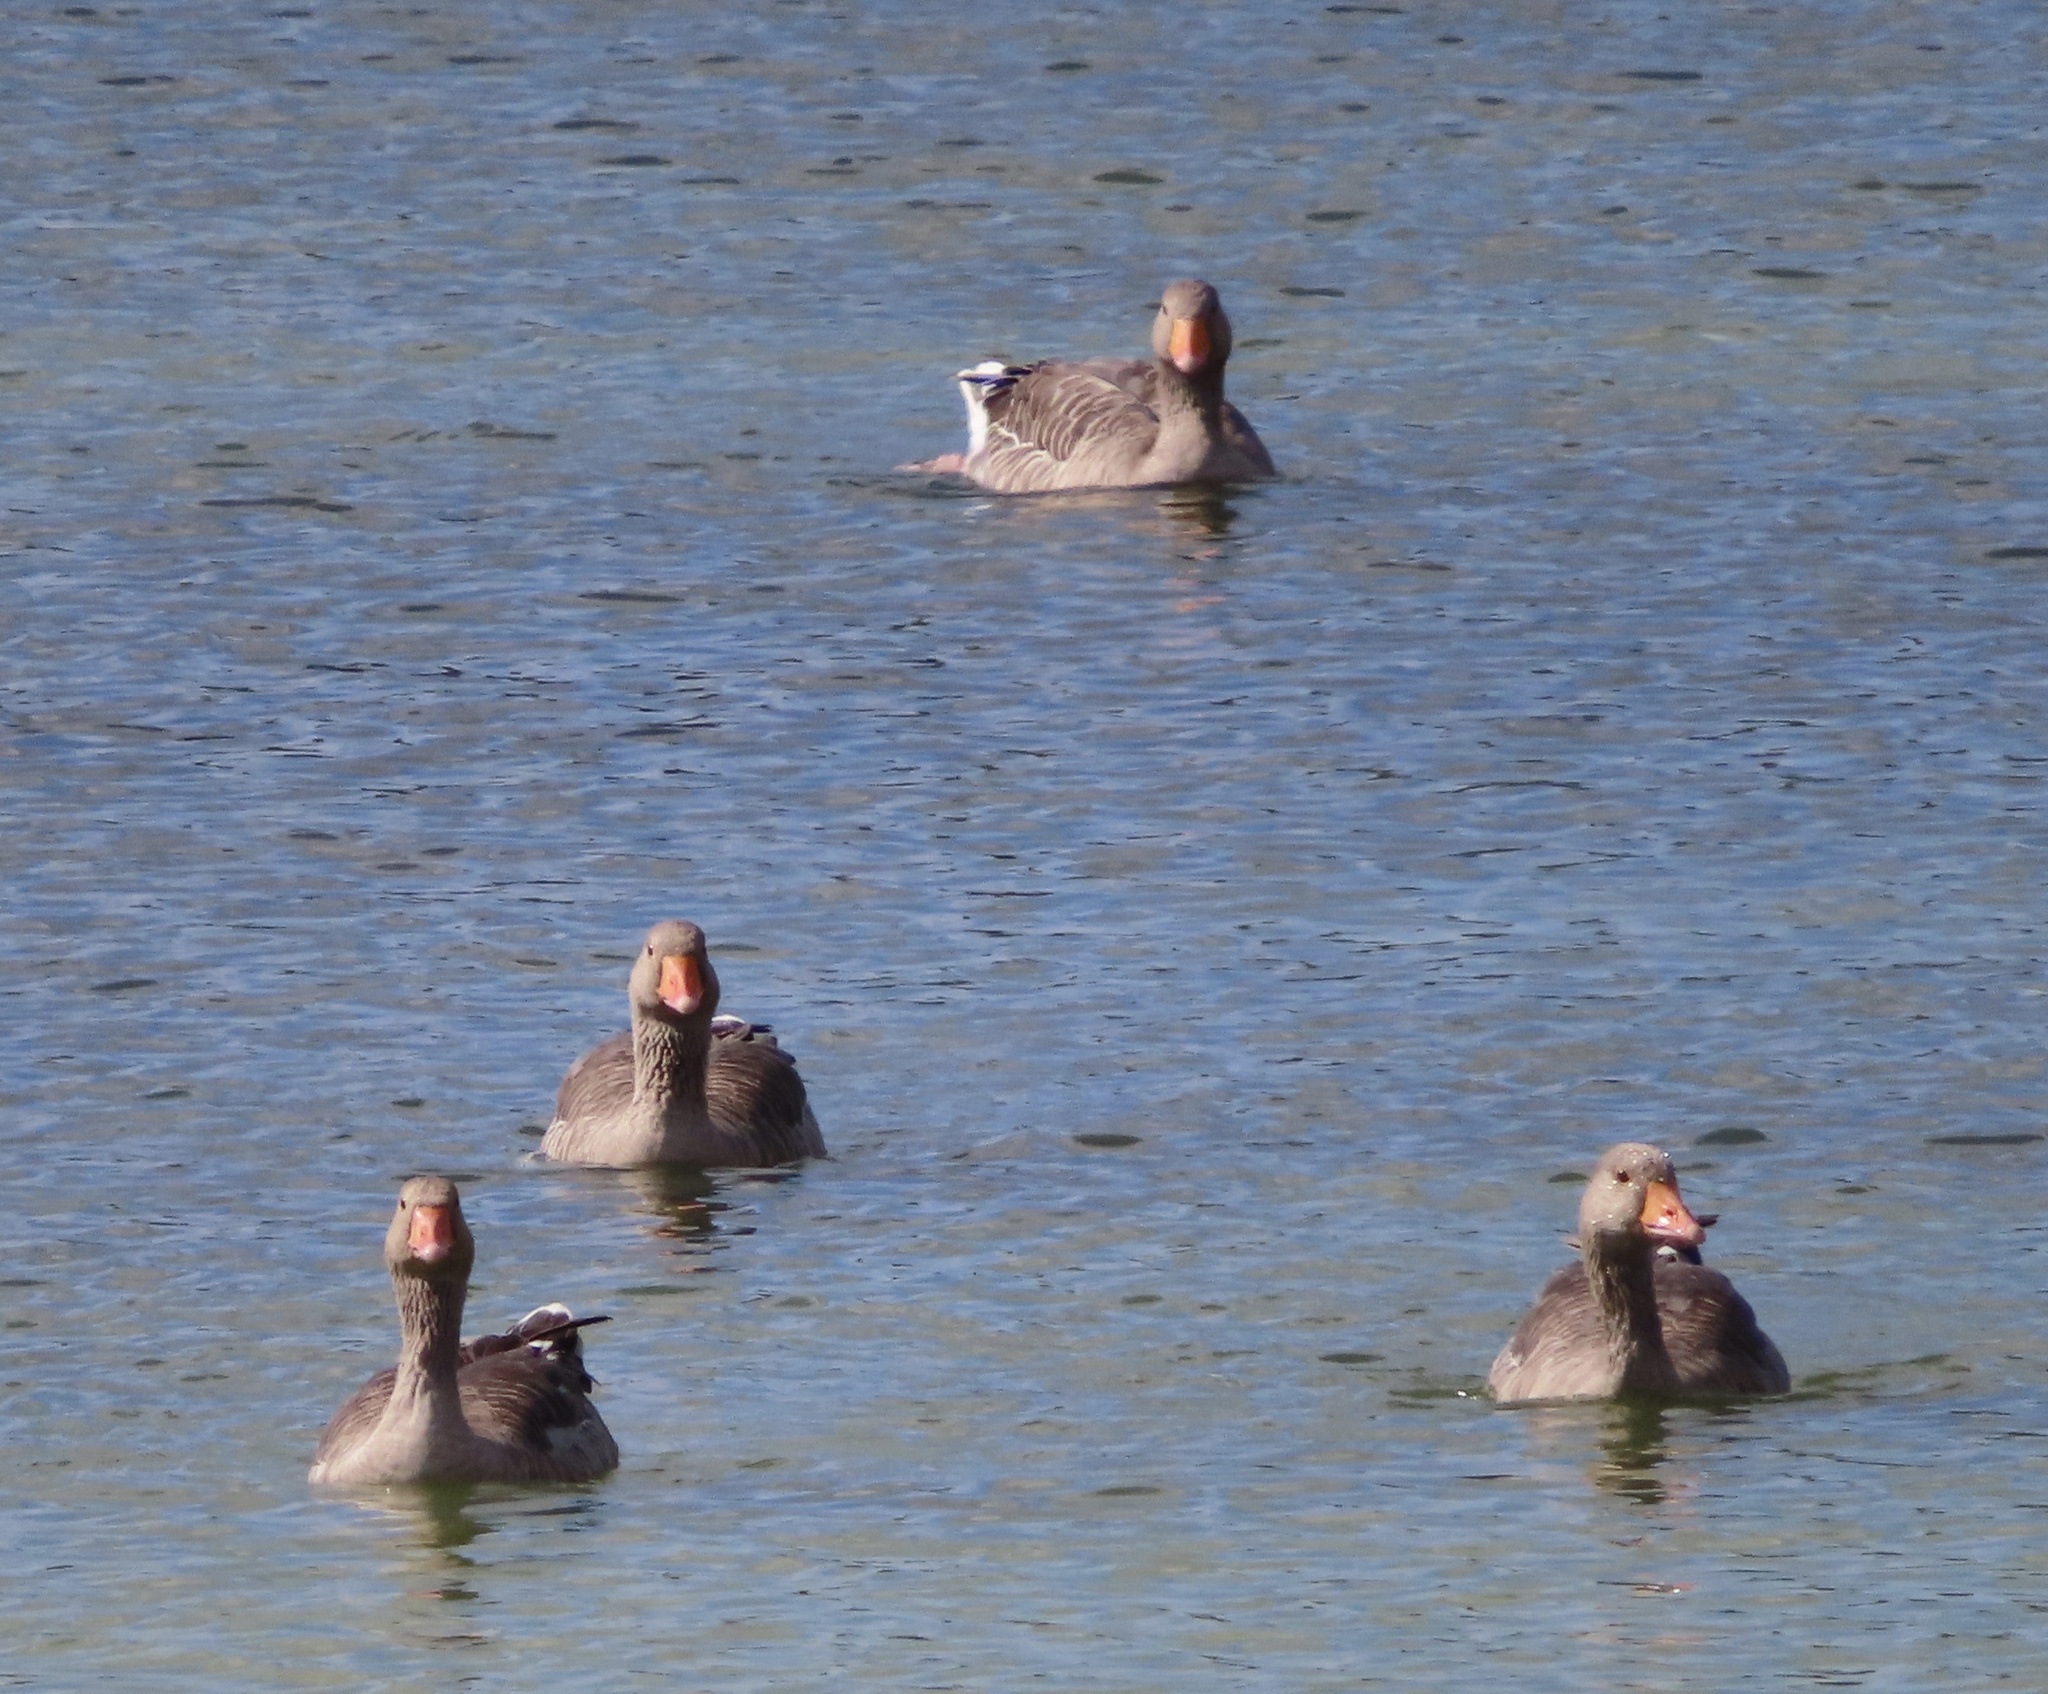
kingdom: Animalia
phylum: Chordata
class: Aves
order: Anseriformes
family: Anatidae
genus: Anser
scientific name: Anser anser
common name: Greylag goose
